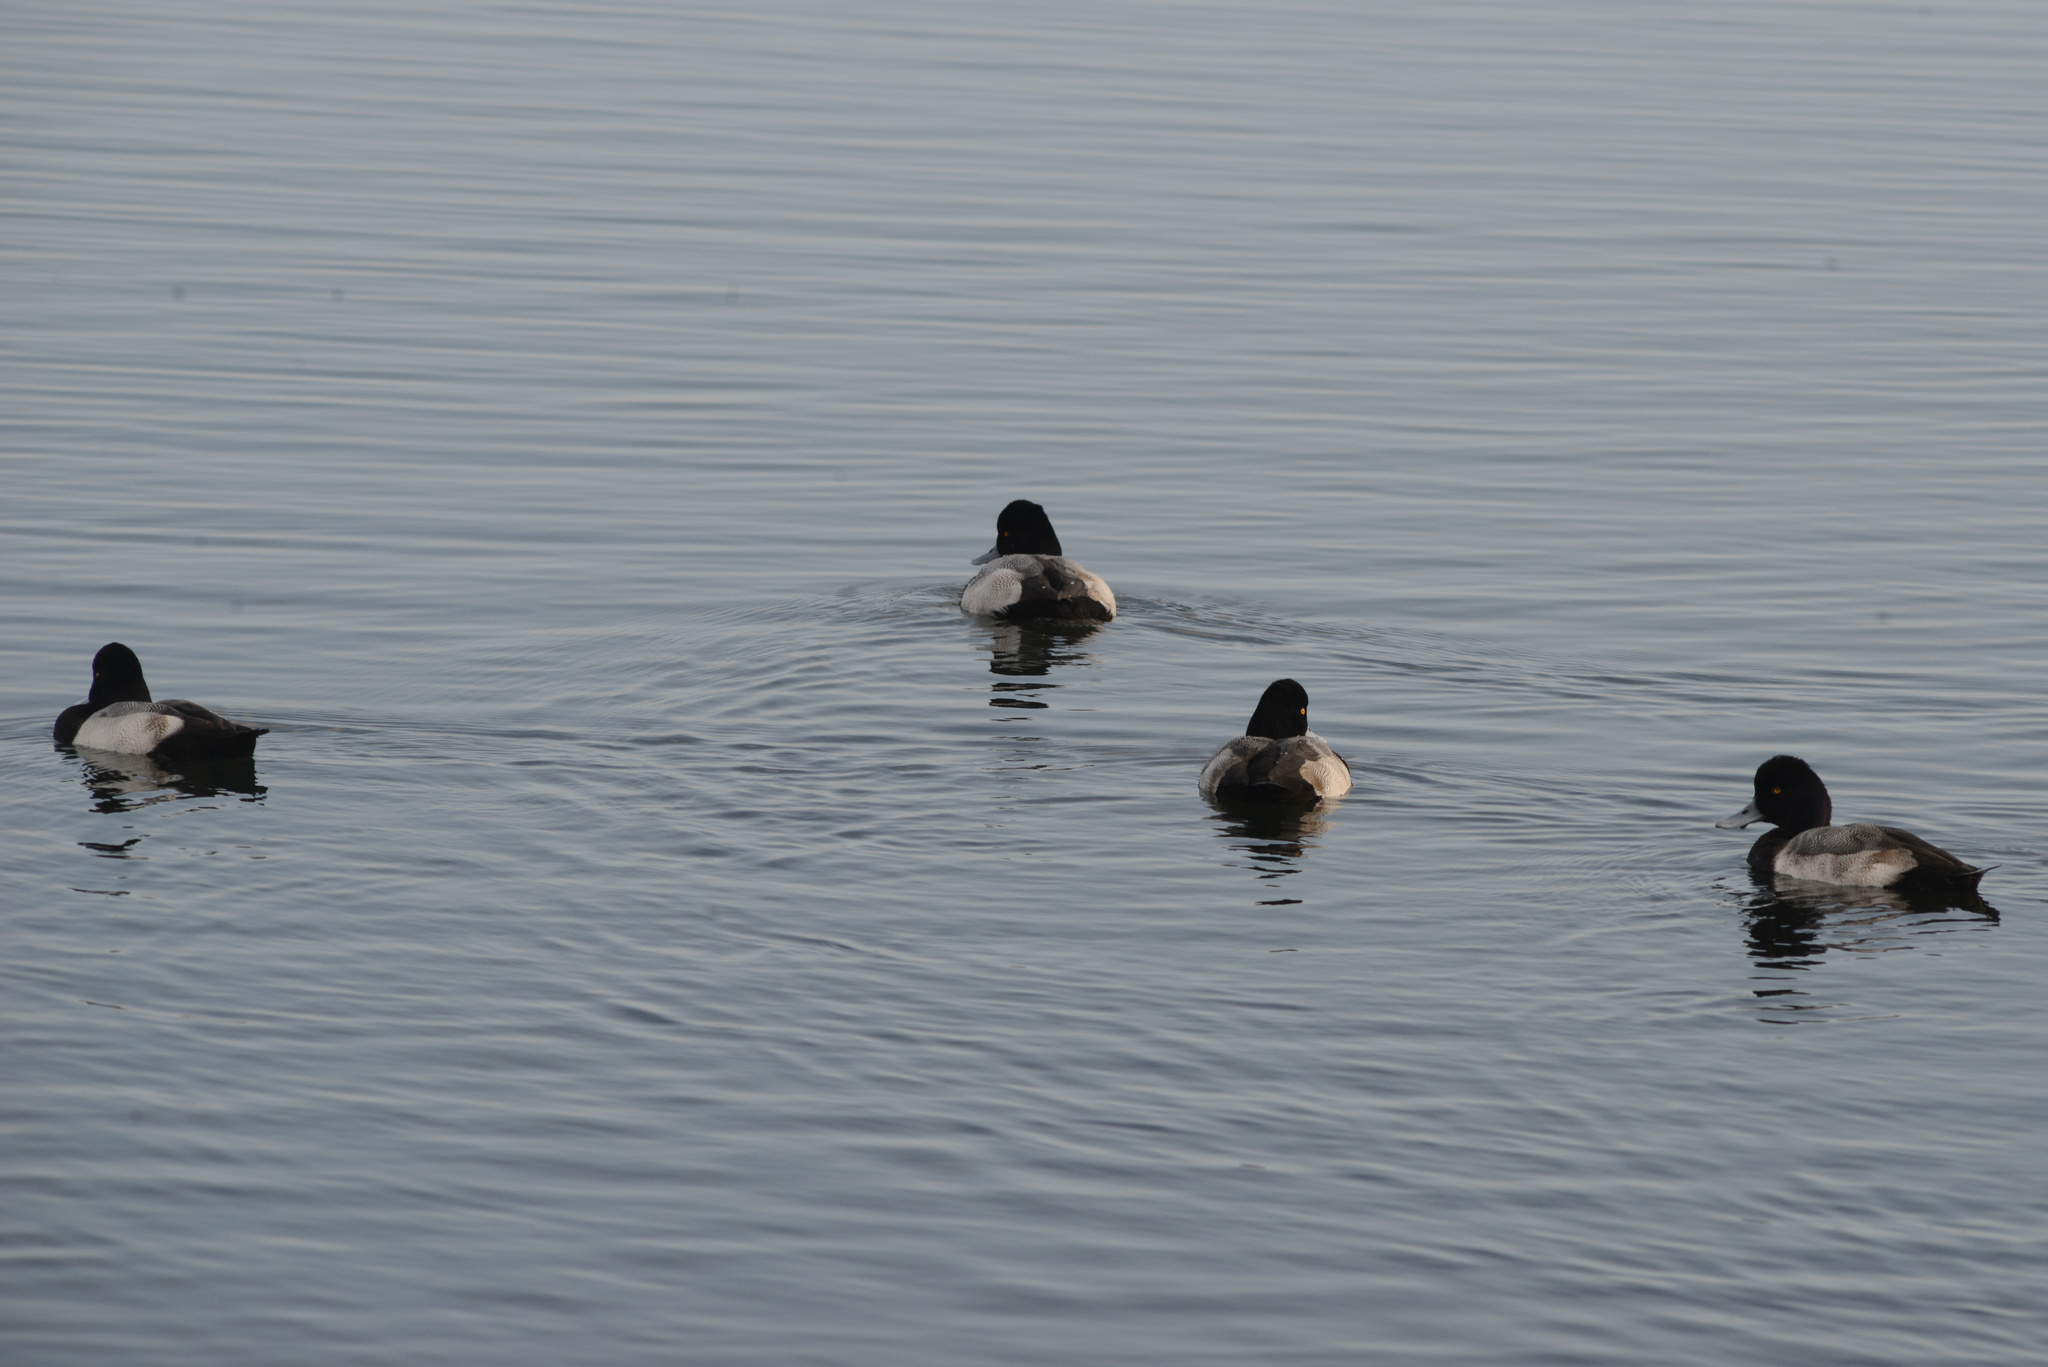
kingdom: Animalia
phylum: Chordata
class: Aves
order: Anseriformes
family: Anatidae
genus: Aythya
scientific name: Aythya affinis
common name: Lesser scaup
